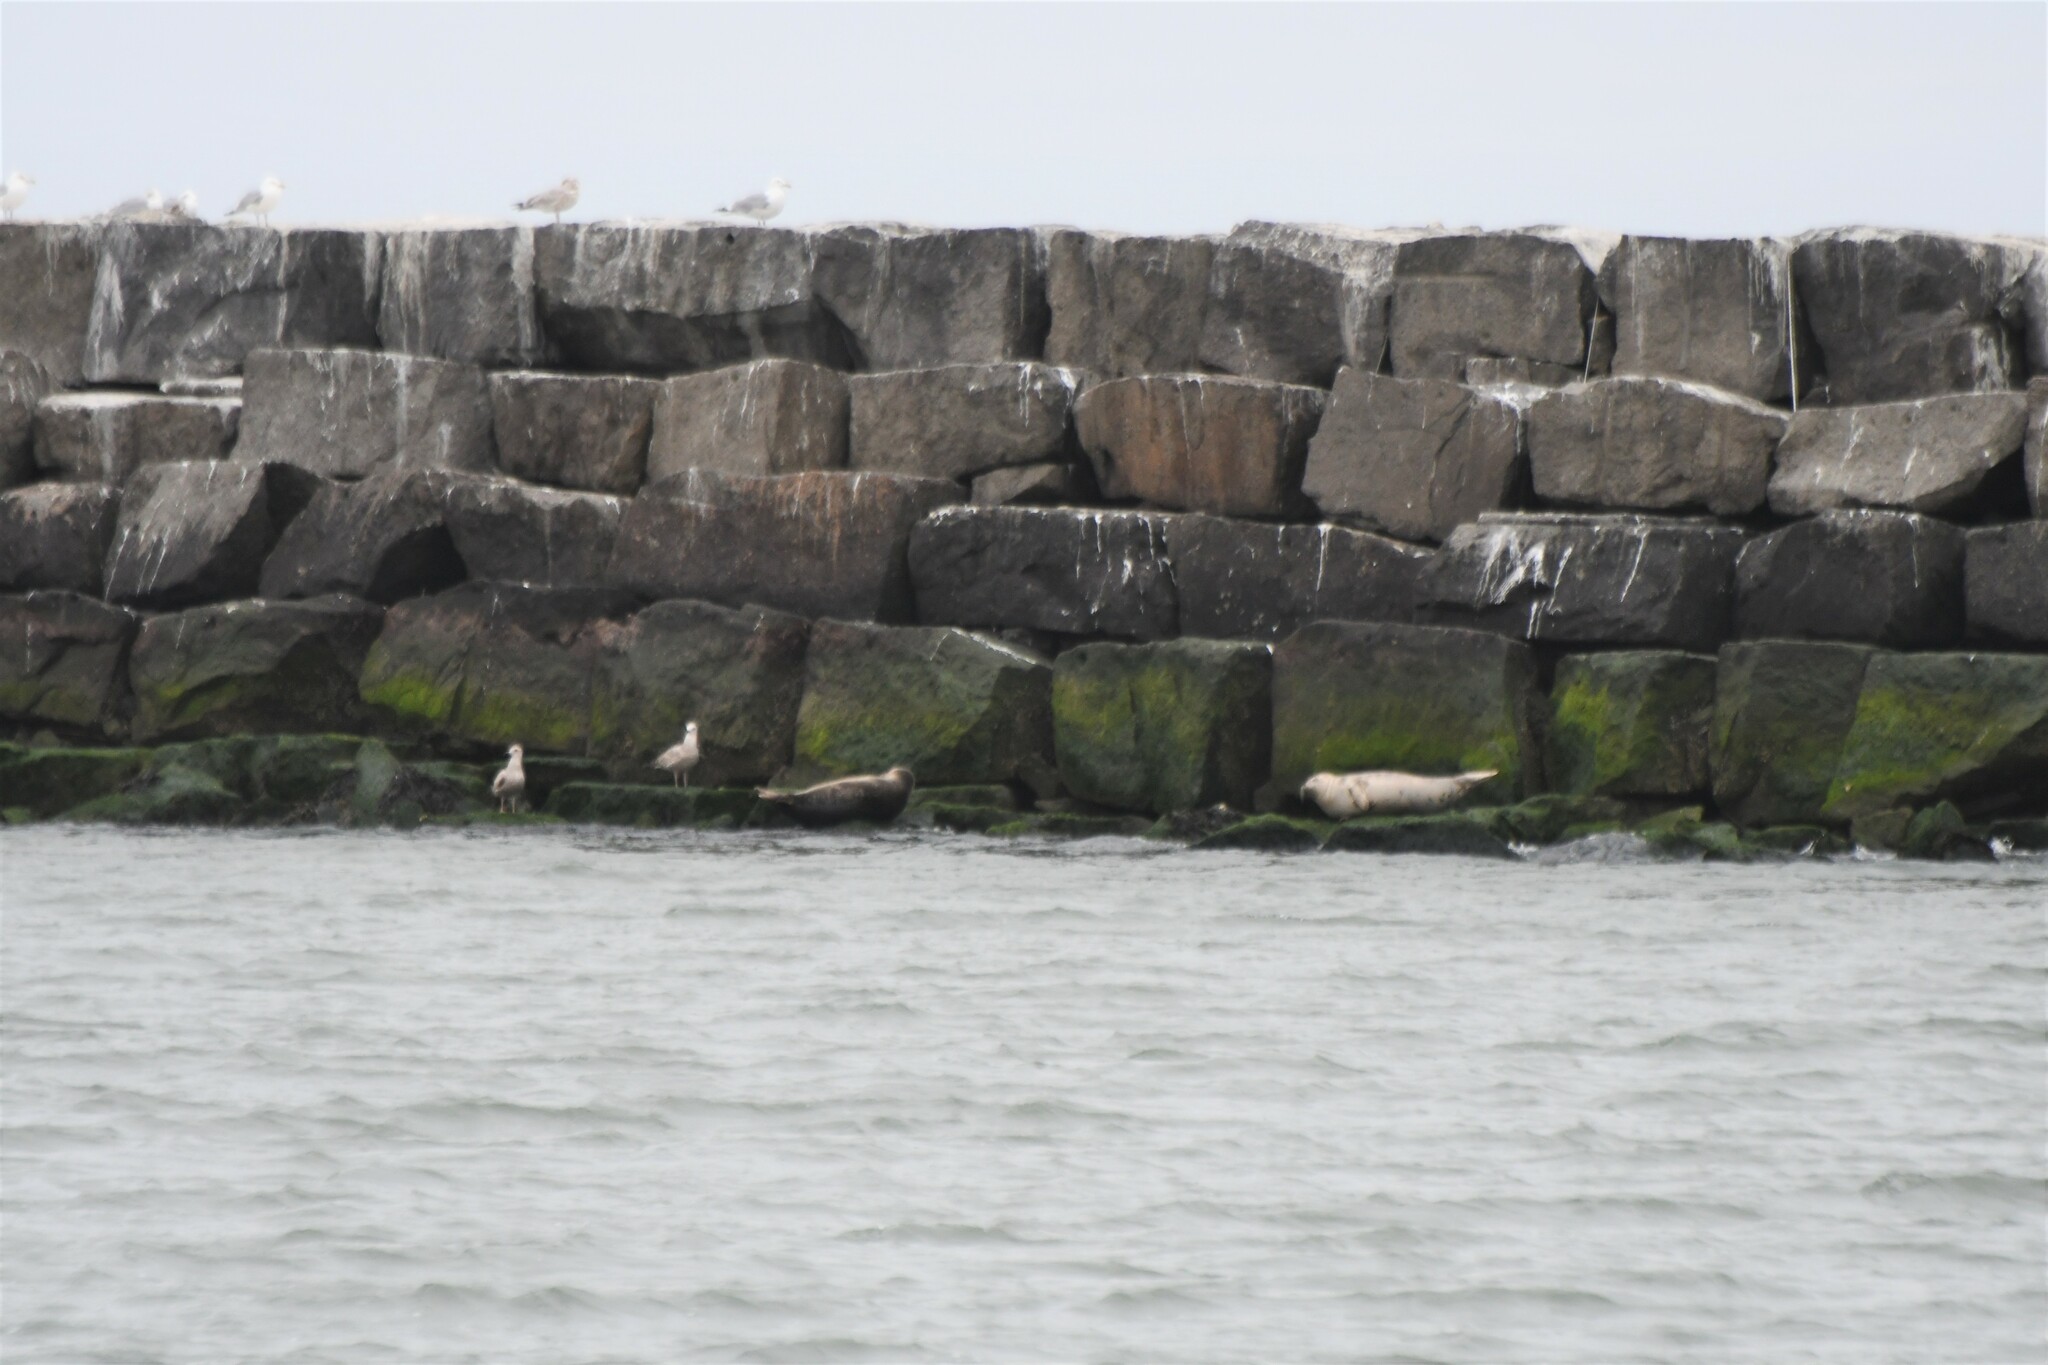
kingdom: Animalia
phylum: Chordata
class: Mammalia
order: Carnivora
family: Phocidae
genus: Phoca
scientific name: Phoca vitulina
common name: Harbor seal
